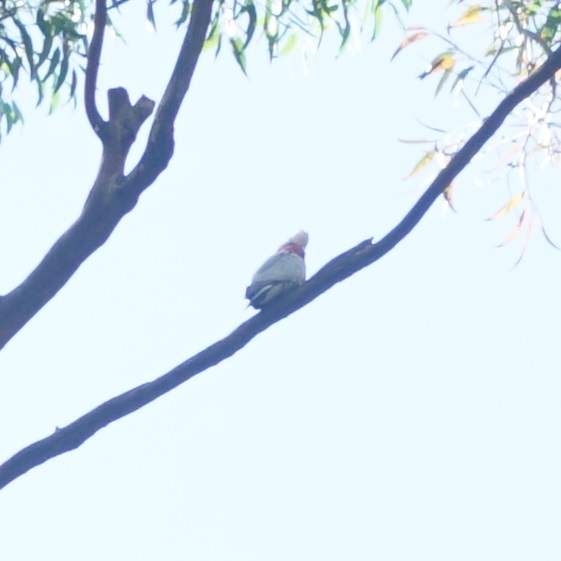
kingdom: Animalia
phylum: Chordata
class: Aves
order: Psittaciformes
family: Psittacidae
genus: Eolophus
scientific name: Eolophus roseicapilla
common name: Galah
